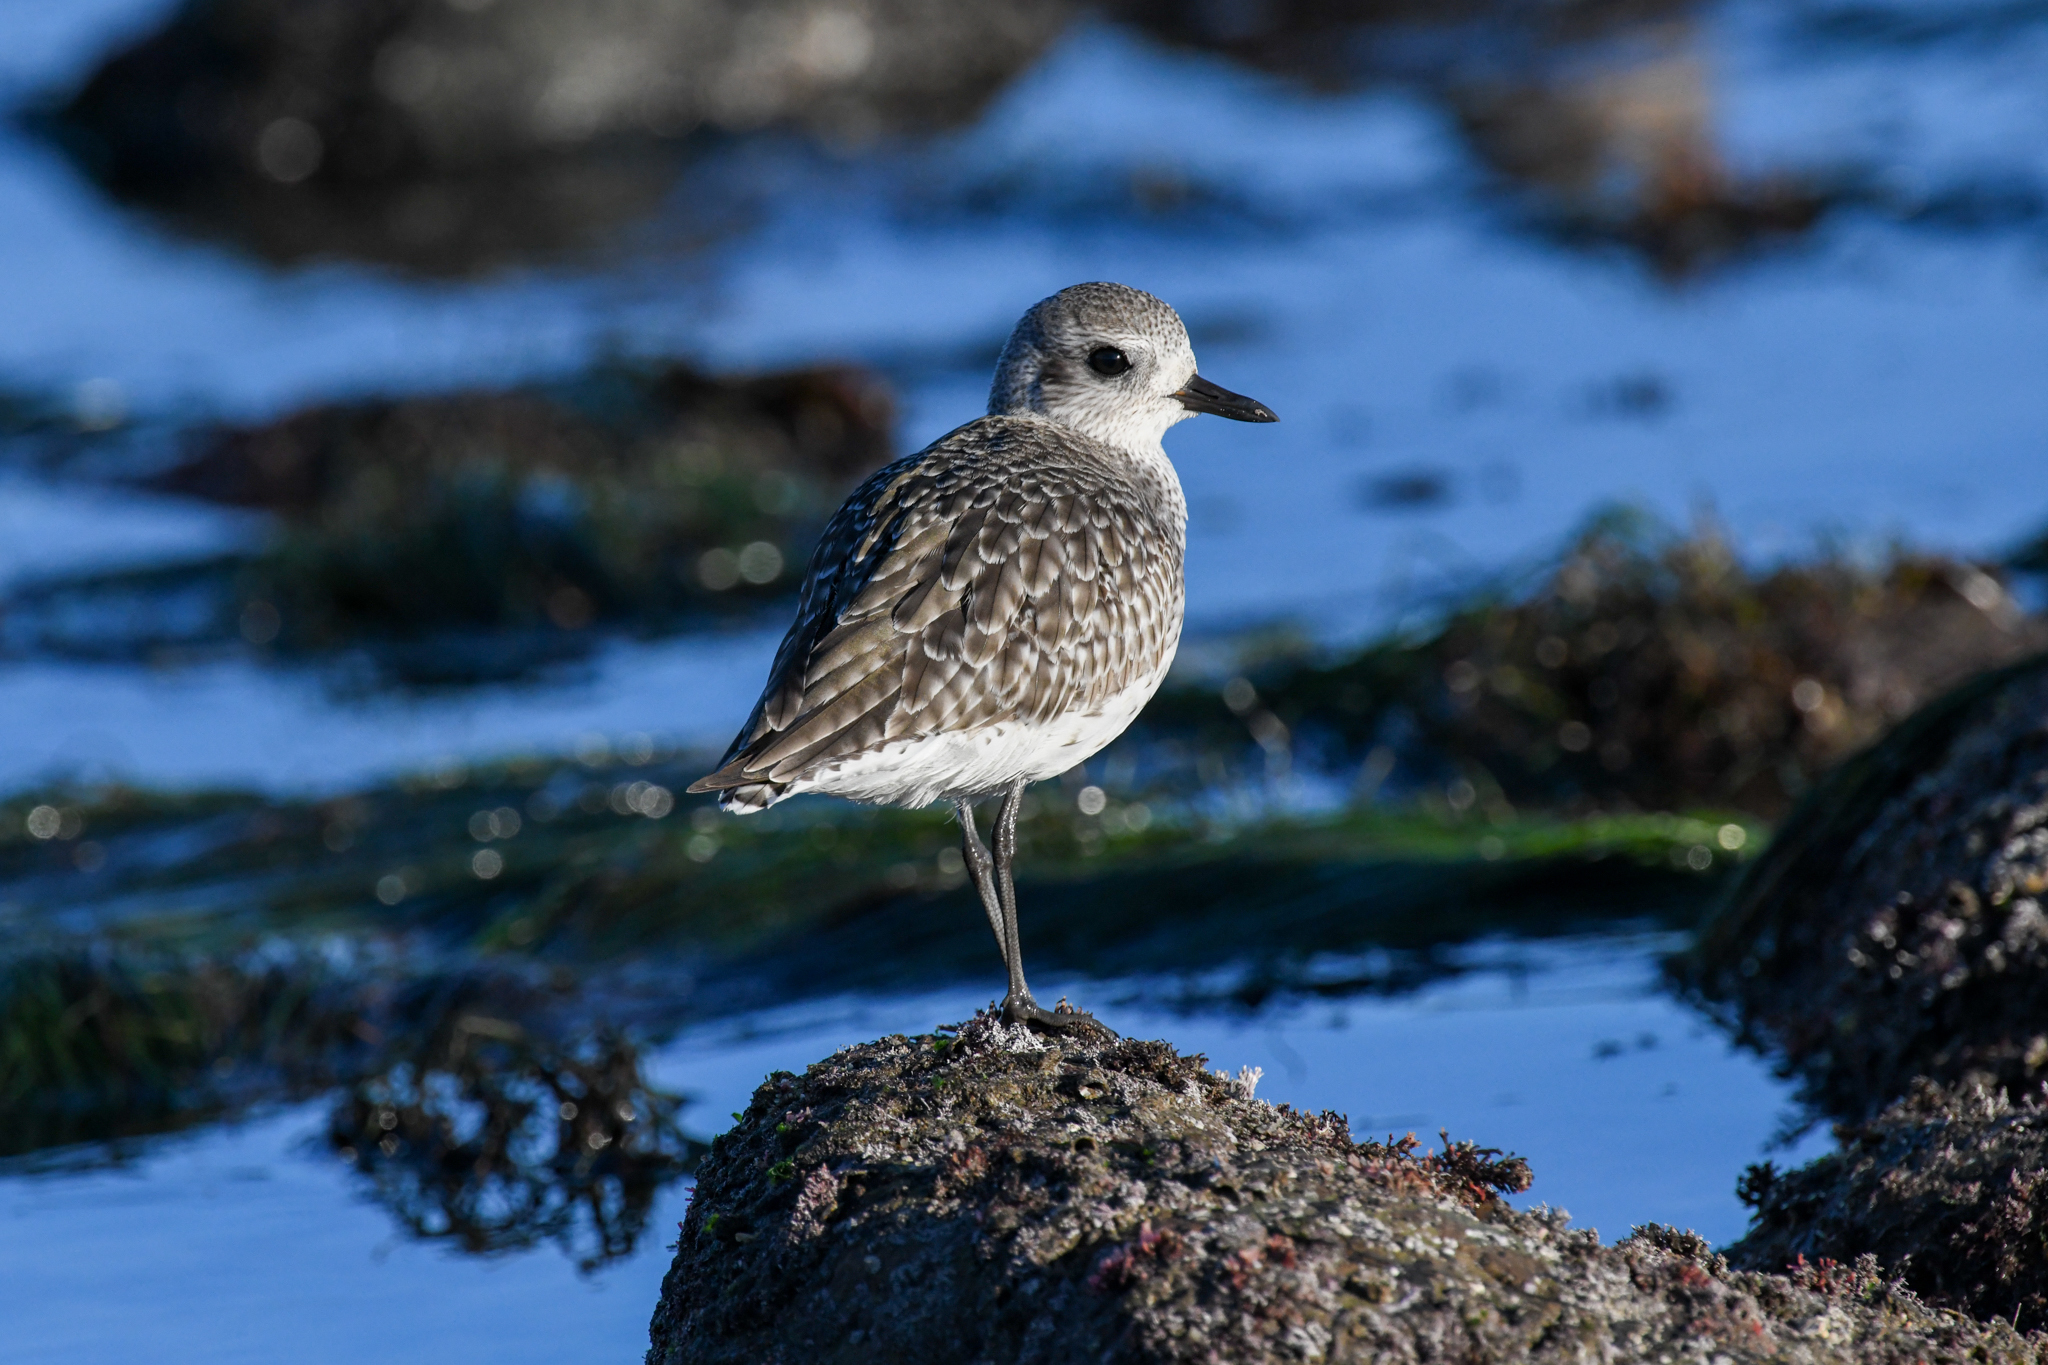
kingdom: Animalia
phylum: Chordata
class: Aves
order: Charadriiformes
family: Charadriidae
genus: Pluvialis
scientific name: Pluvialis squatarola
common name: Grey plover
